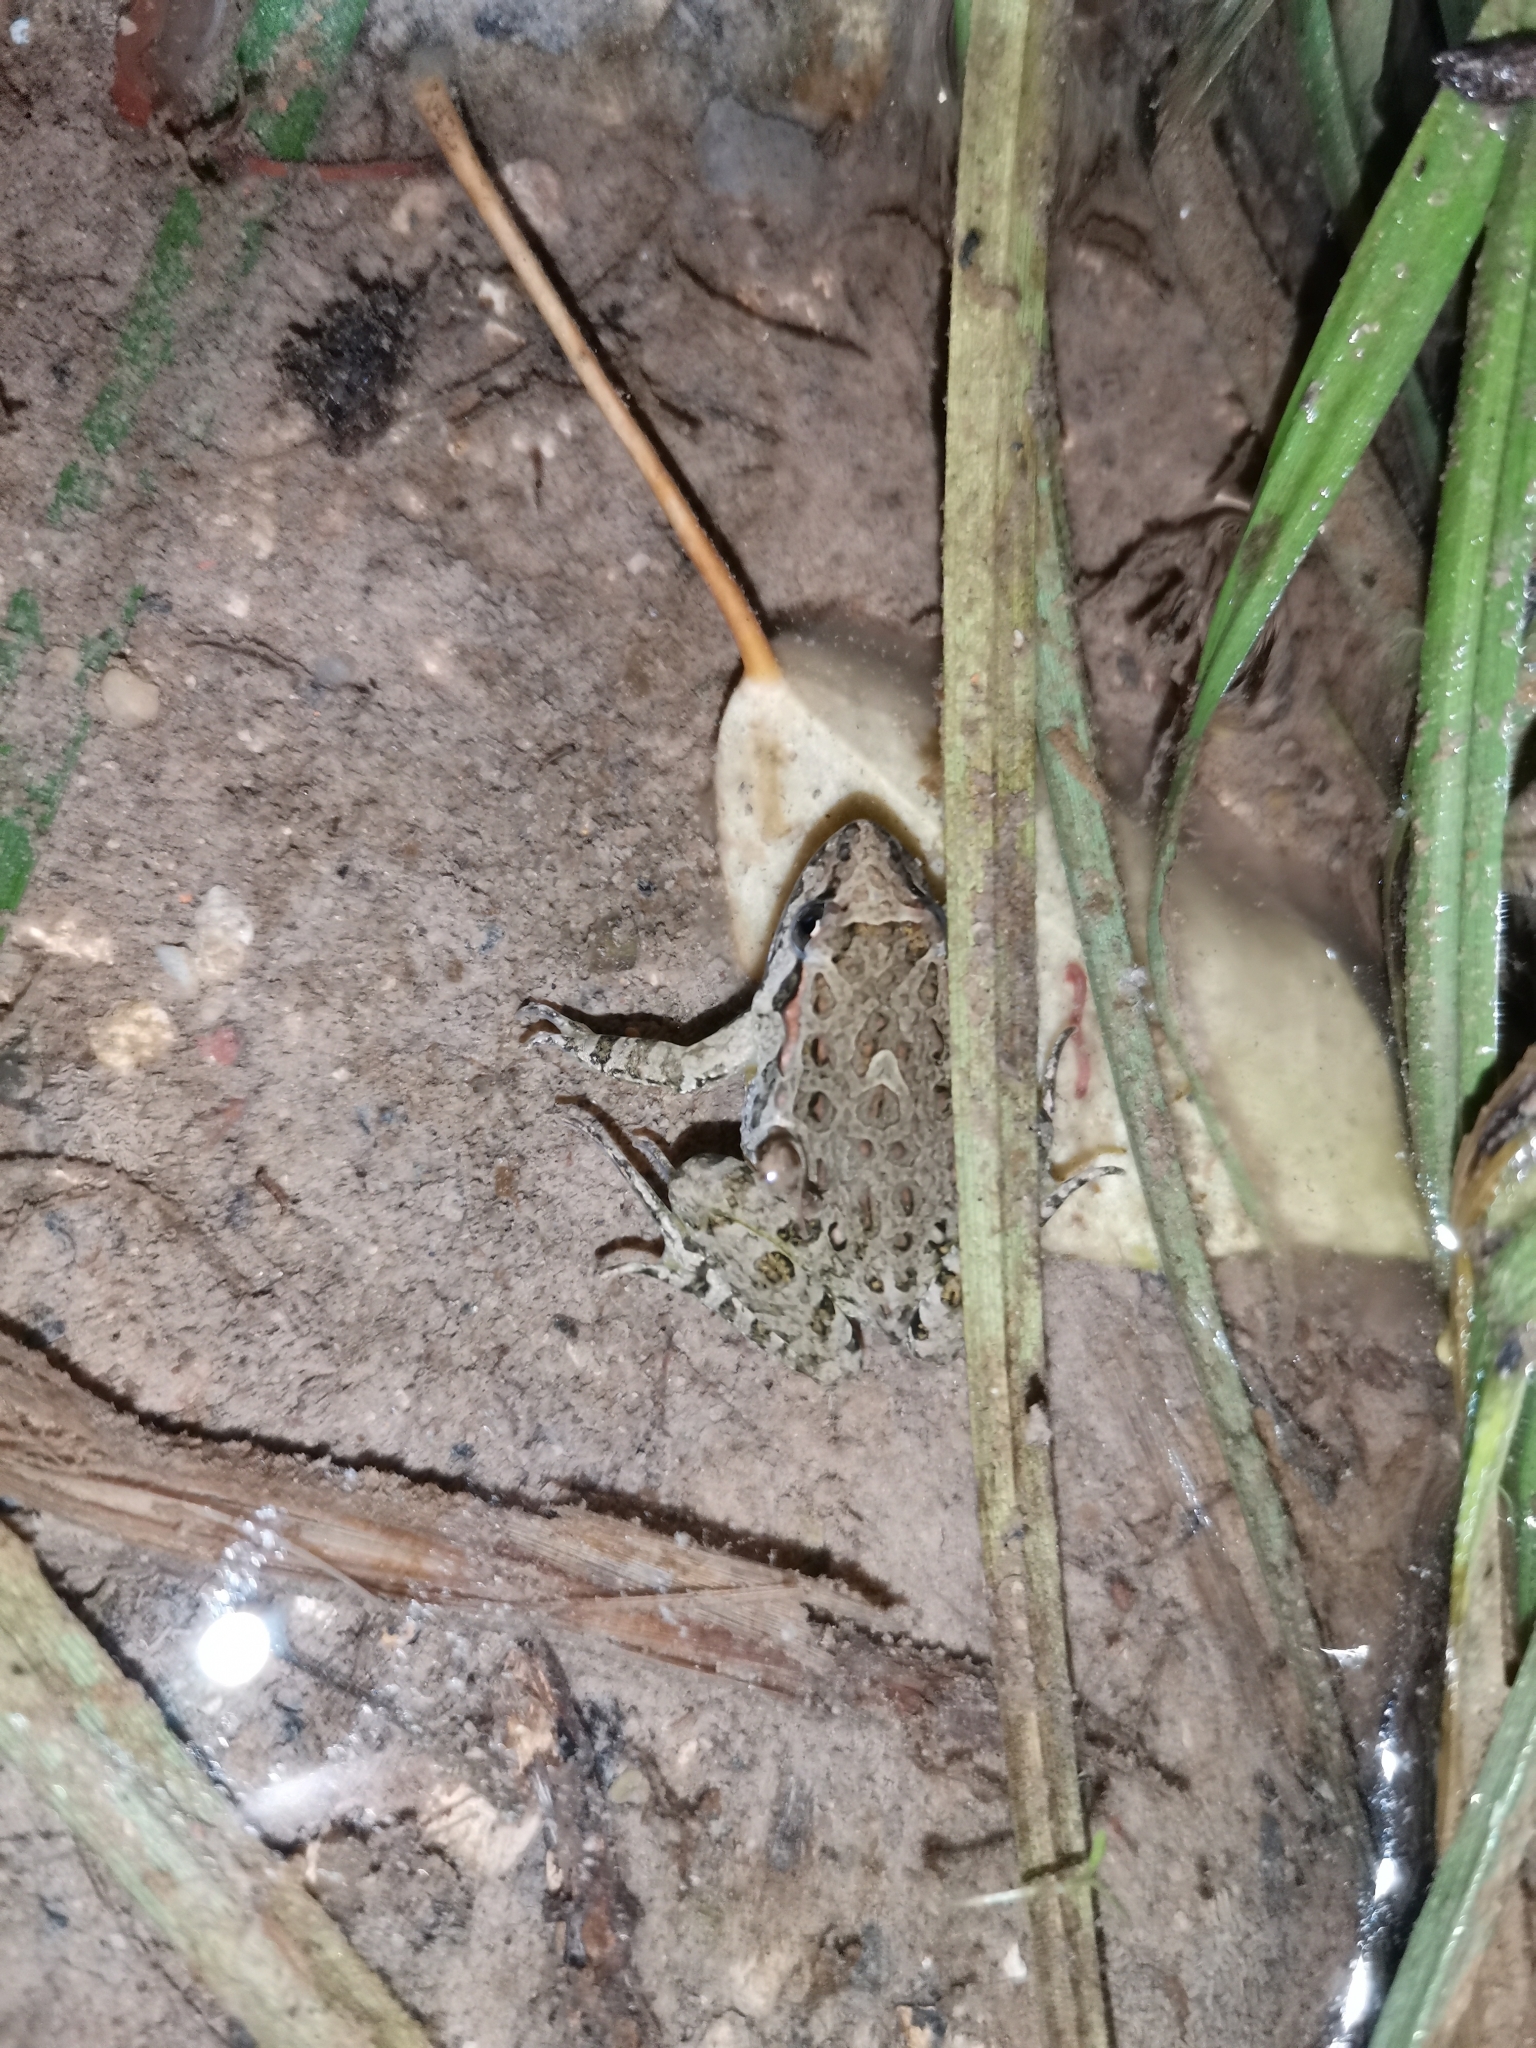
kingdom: Animalia
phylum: Chordata
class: Amphibia
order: Anura
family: Alytidae
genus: Discoglossus
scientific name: Discoglossus pictus
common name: Painted frog
